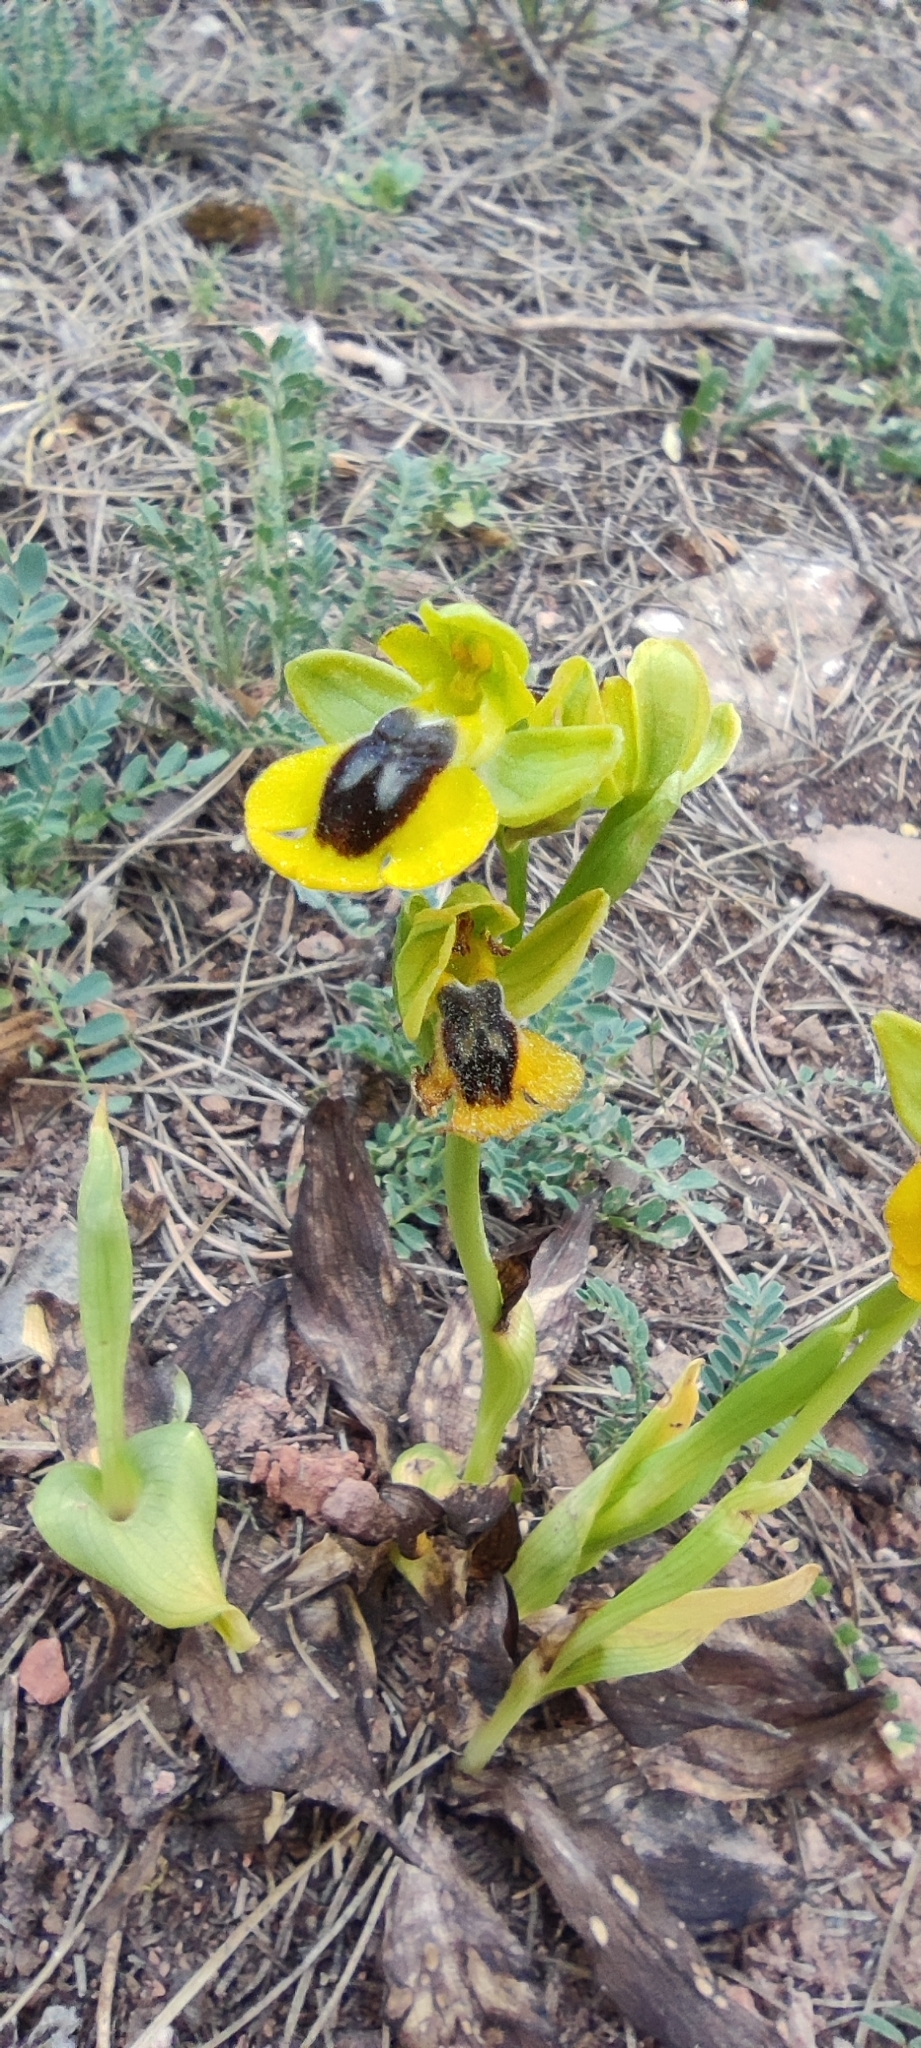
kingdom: Plantae
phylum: Tracheophyta
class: Liliopsida
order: Asparagales
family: Orchidaceae
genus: Ophrys
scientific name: Ophrys lutea
